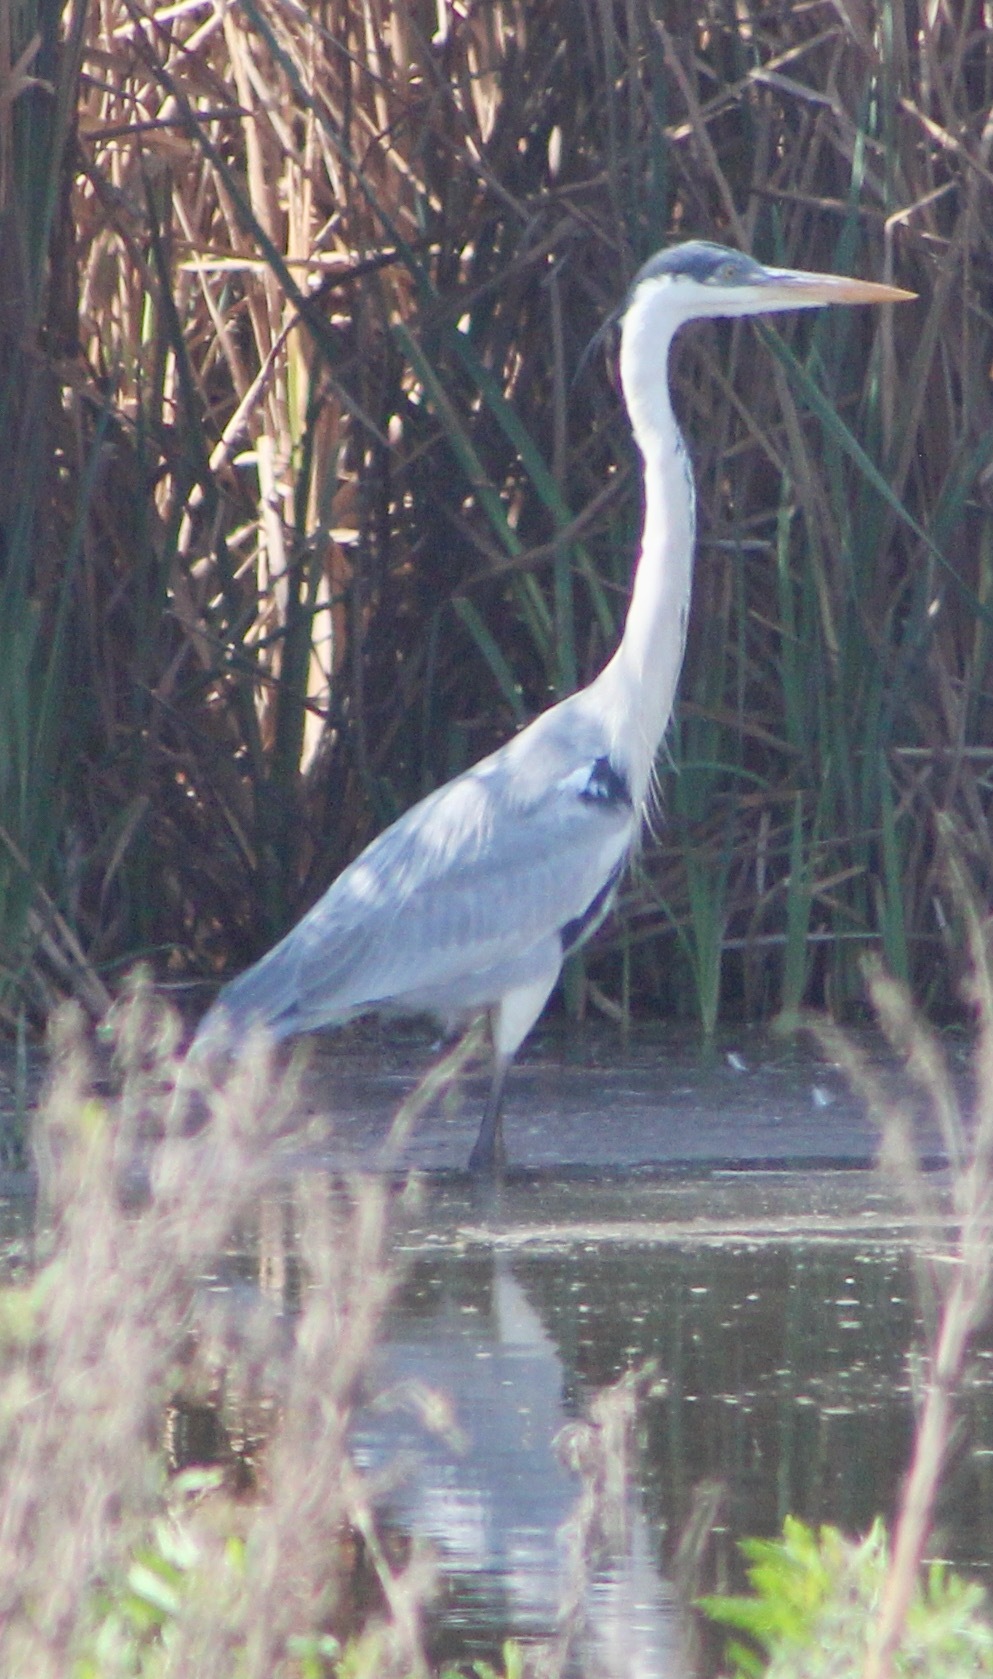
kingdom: Animalia
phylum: Chordata
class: Aves
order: Pelecaniformes
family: Ardeidae
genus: Ardea
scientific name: Ardea cocoi
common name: Cocoi heron
